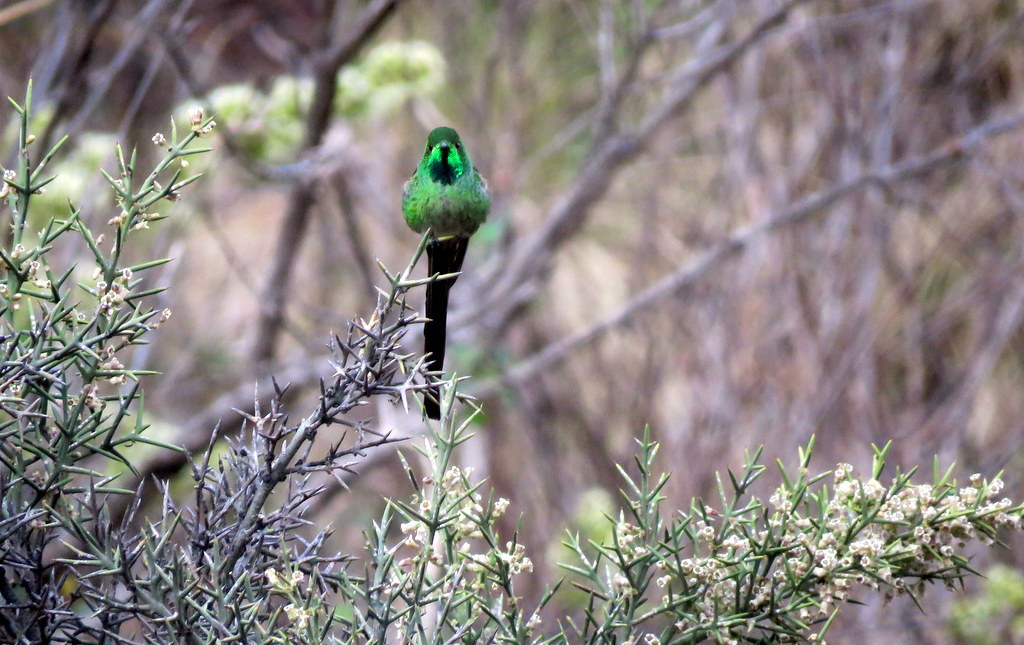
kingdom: Animalia
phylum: Chordata
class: Aves
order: Apodiformes
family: Trochilidae
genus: Sappho
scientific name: Sappho sparganurus
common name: Red-tailed comet
